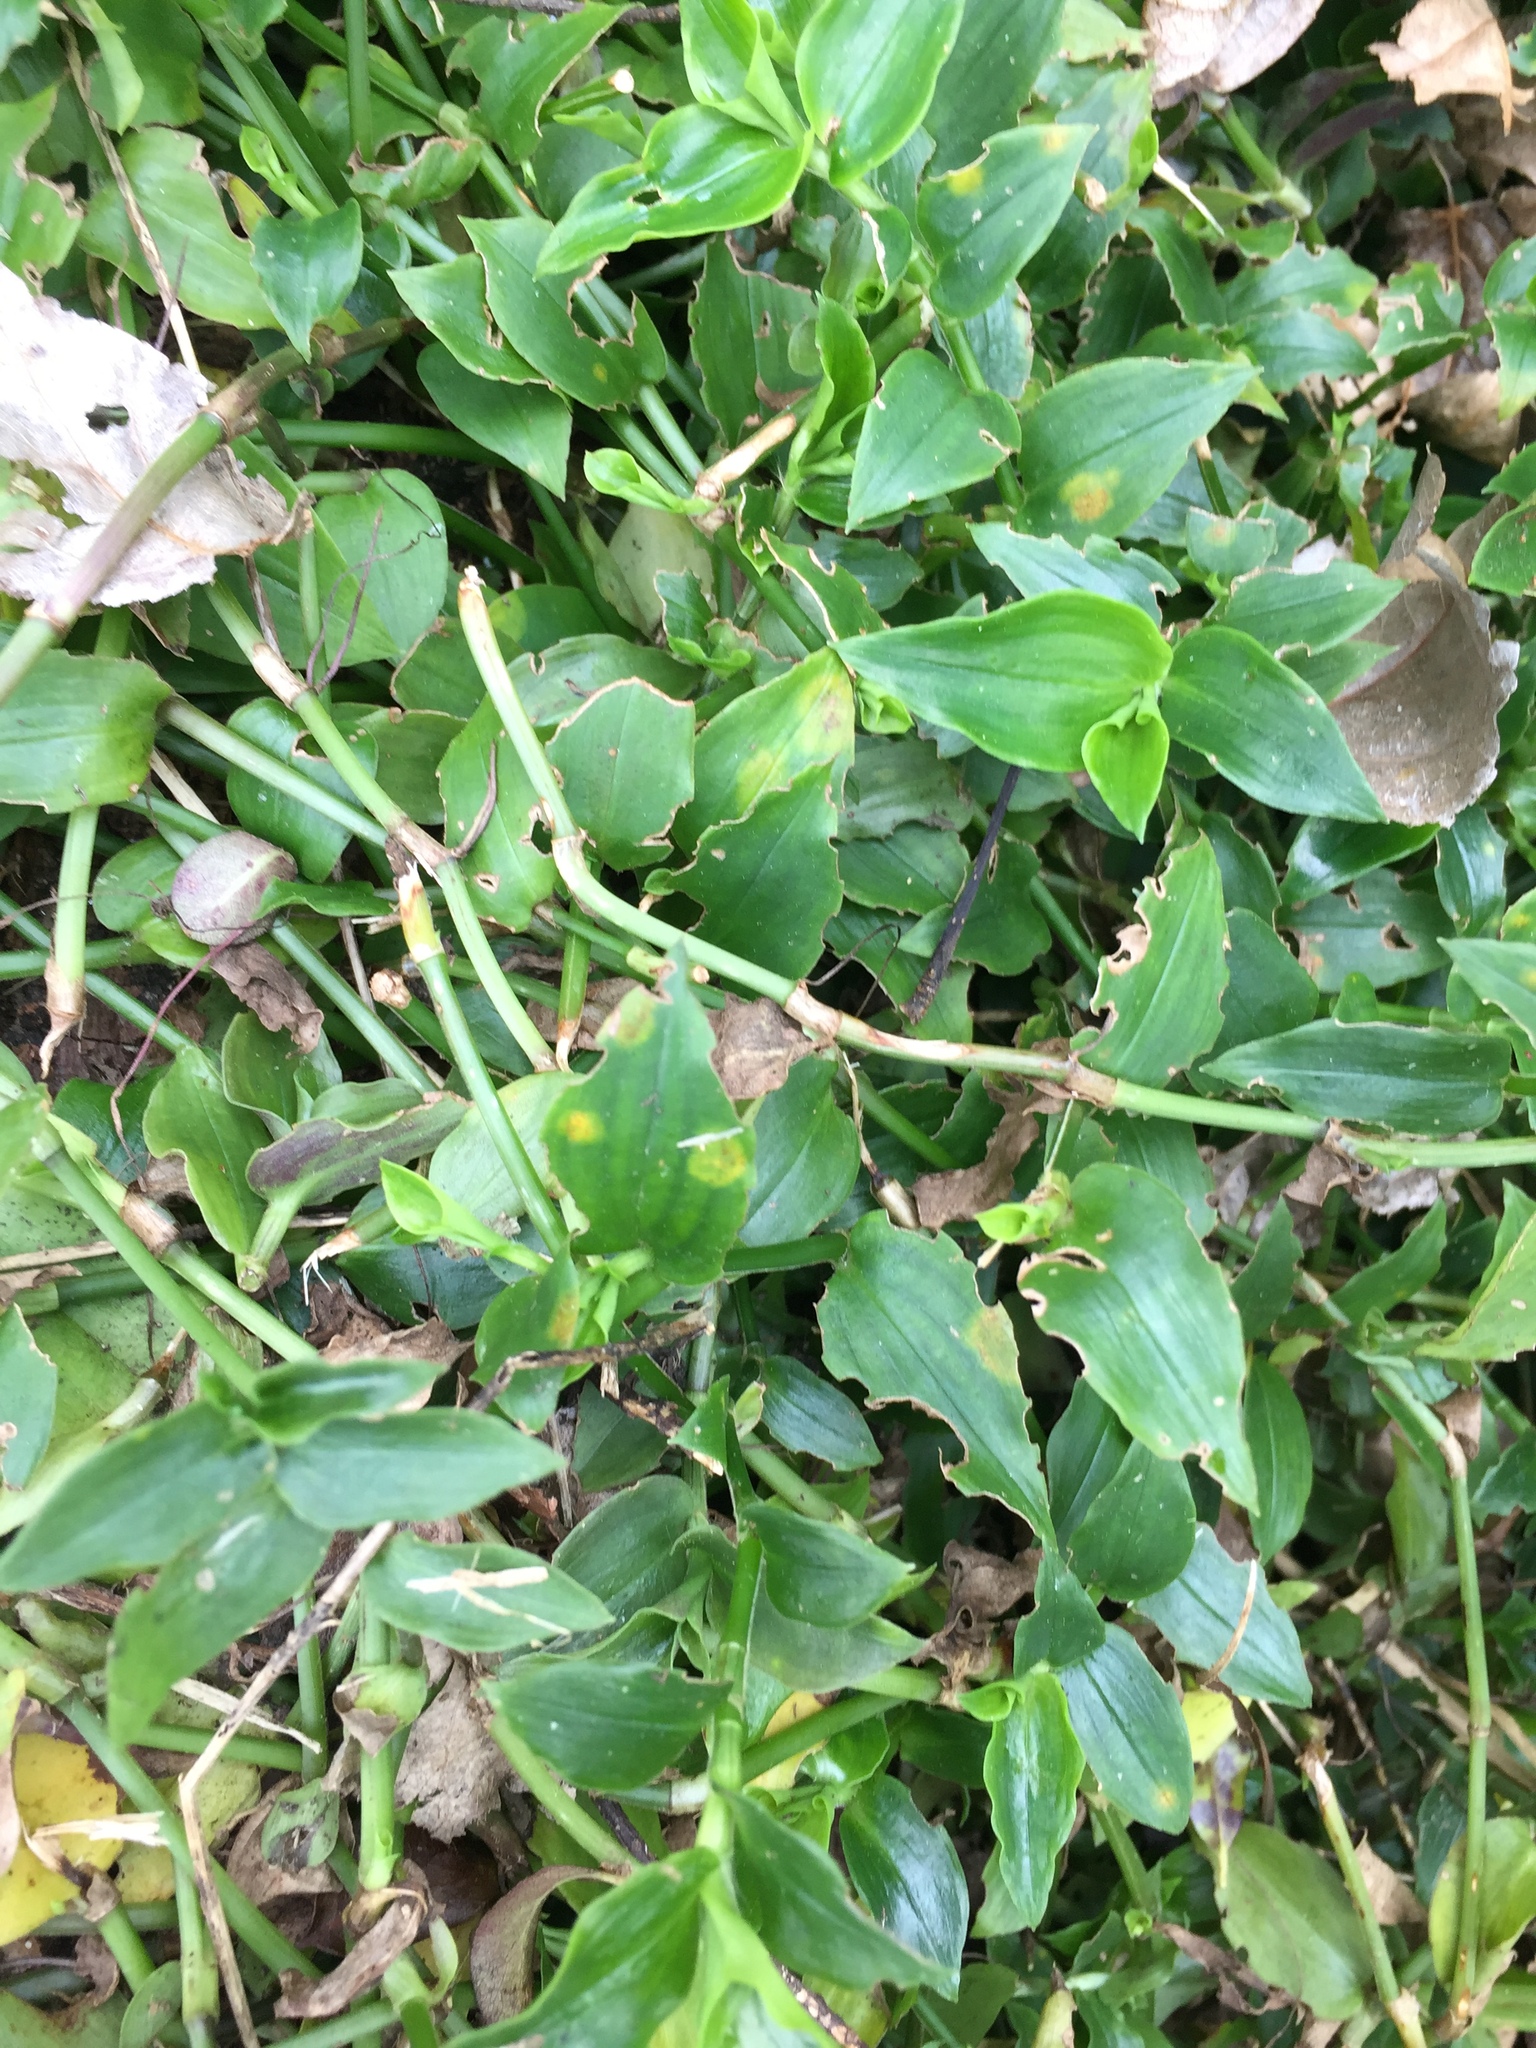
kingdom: Fungi
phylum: Basidiomycota
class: Exobasidiomycetes
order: Exobasidiales
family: Brachybasidiaceae
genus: Kordyana
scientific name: Kordyana brasiliensis
